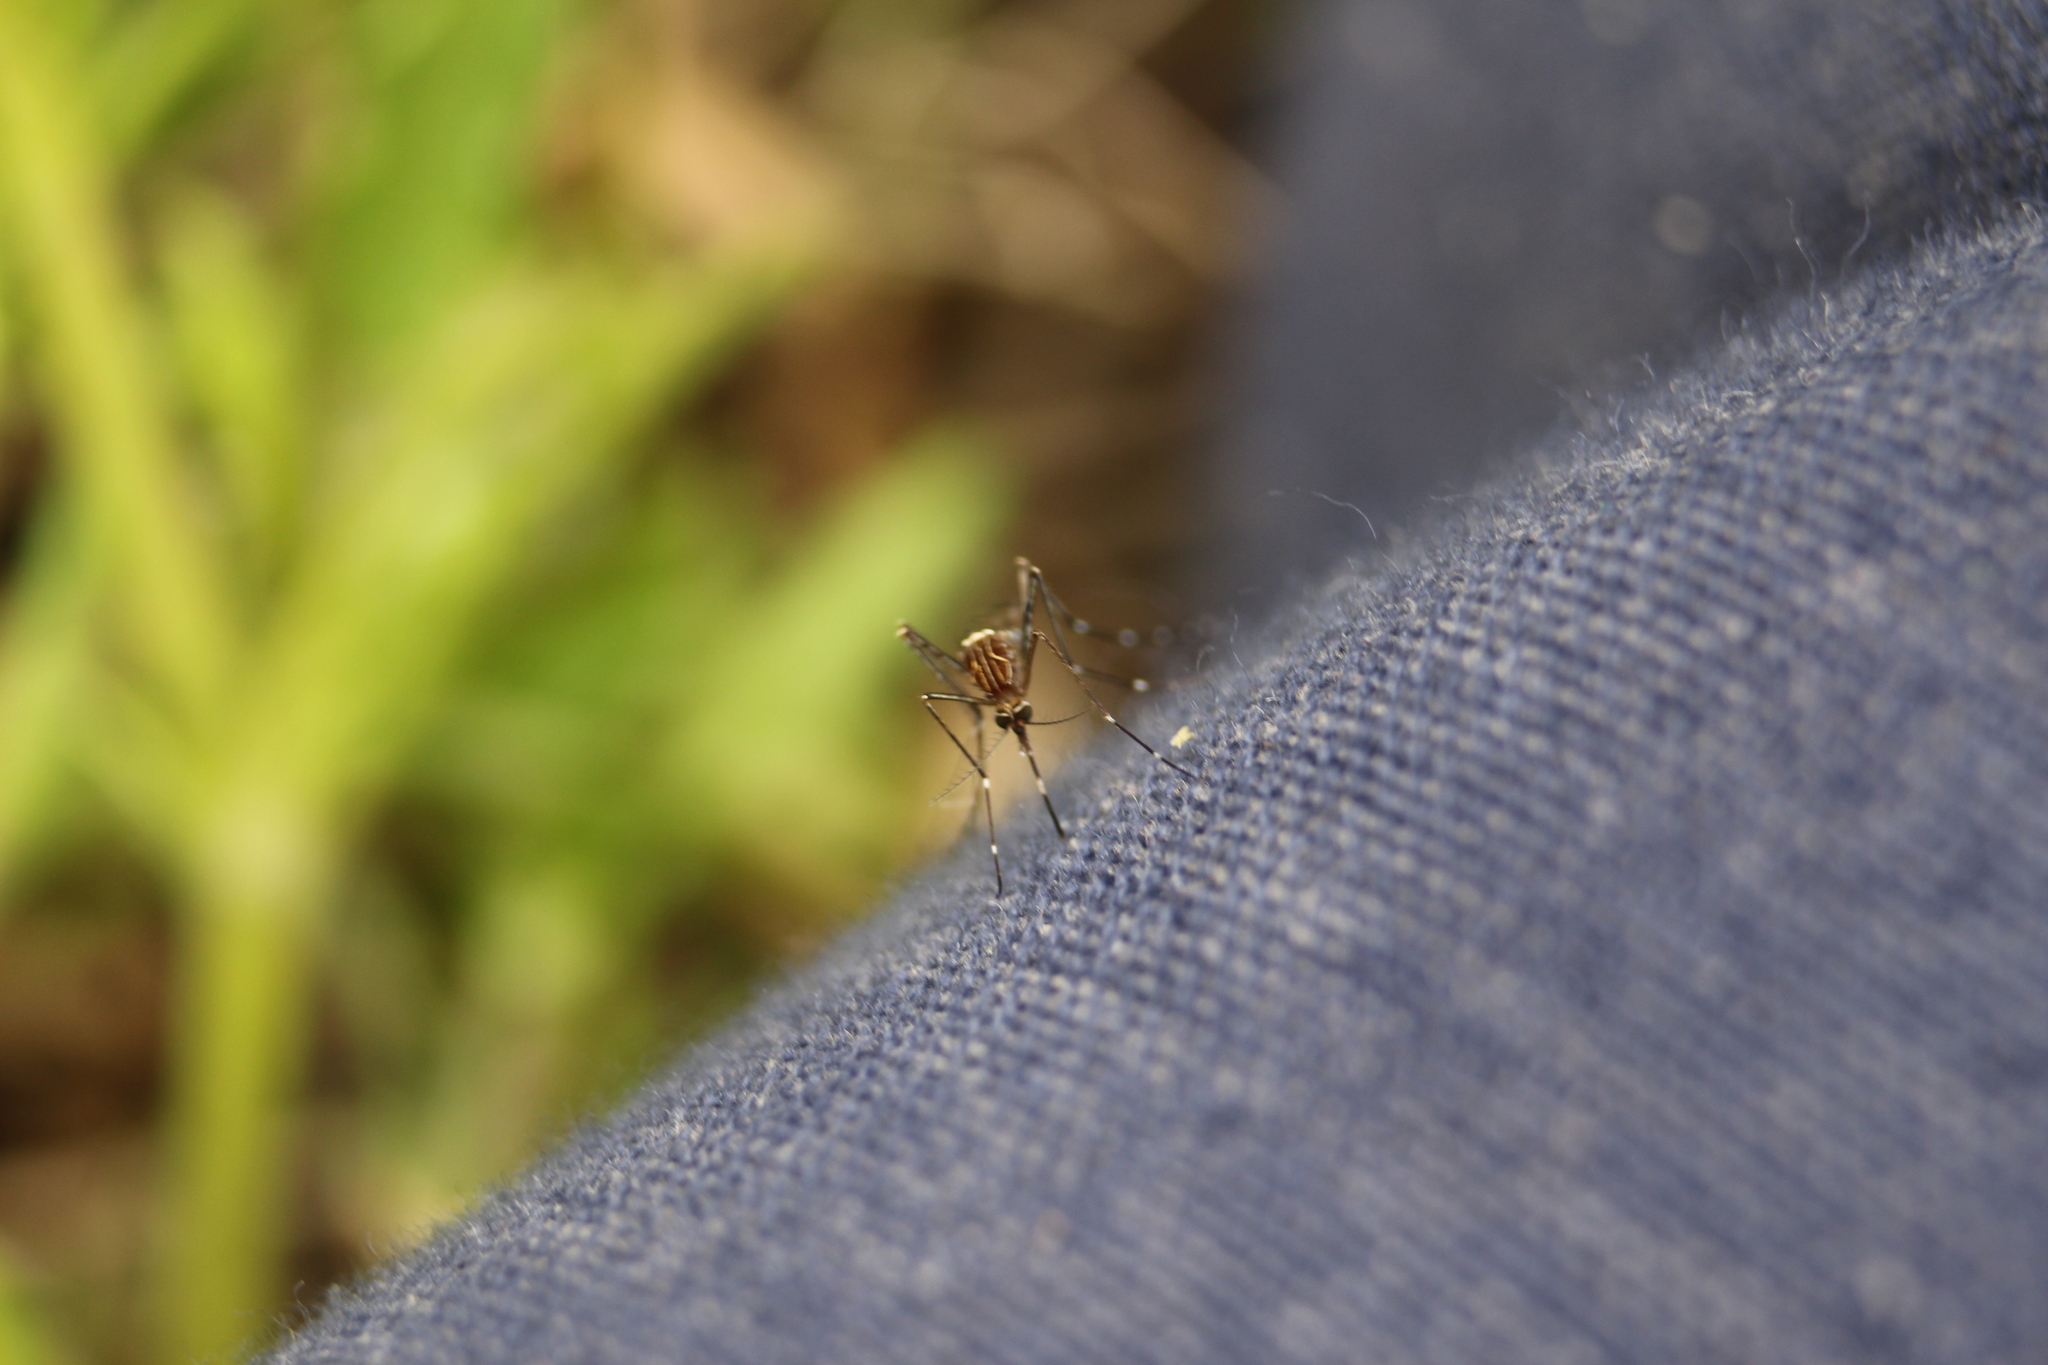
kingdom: Animalia
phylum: Arthropoda
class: Insecta
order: Diptera
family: Culicidae
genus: Aedes
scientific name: Aedes notoscriptus
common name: Australian backyard mosquito
